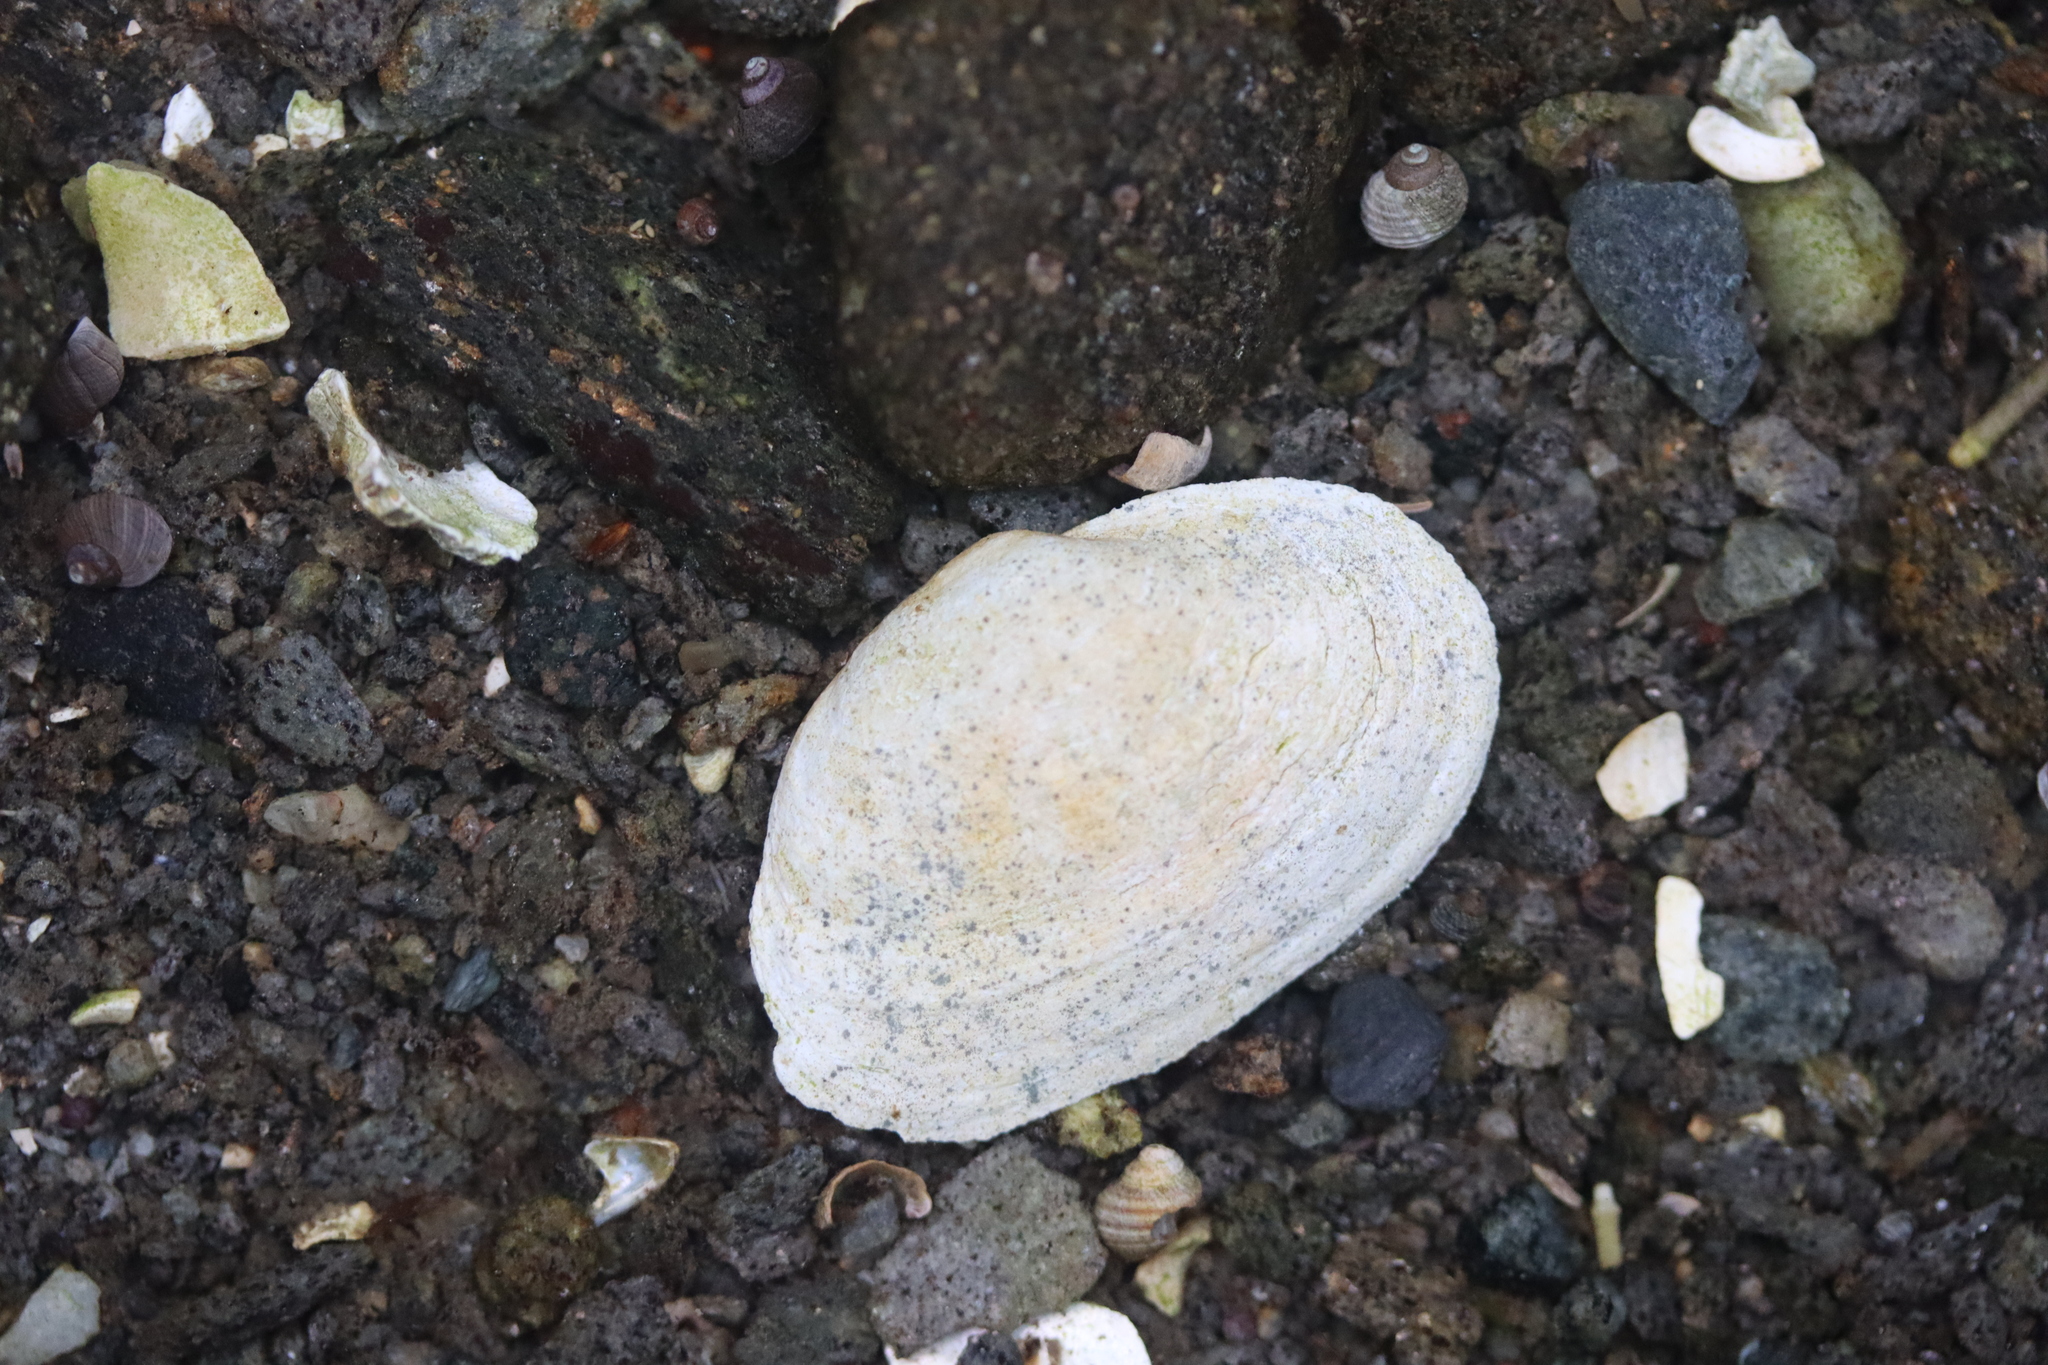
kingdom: Animalia
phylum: Mollusca
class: Bivalvia
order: Myida
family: Myidae
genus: Mya
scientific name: Mya arenaria
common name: Soft-shelled clam
